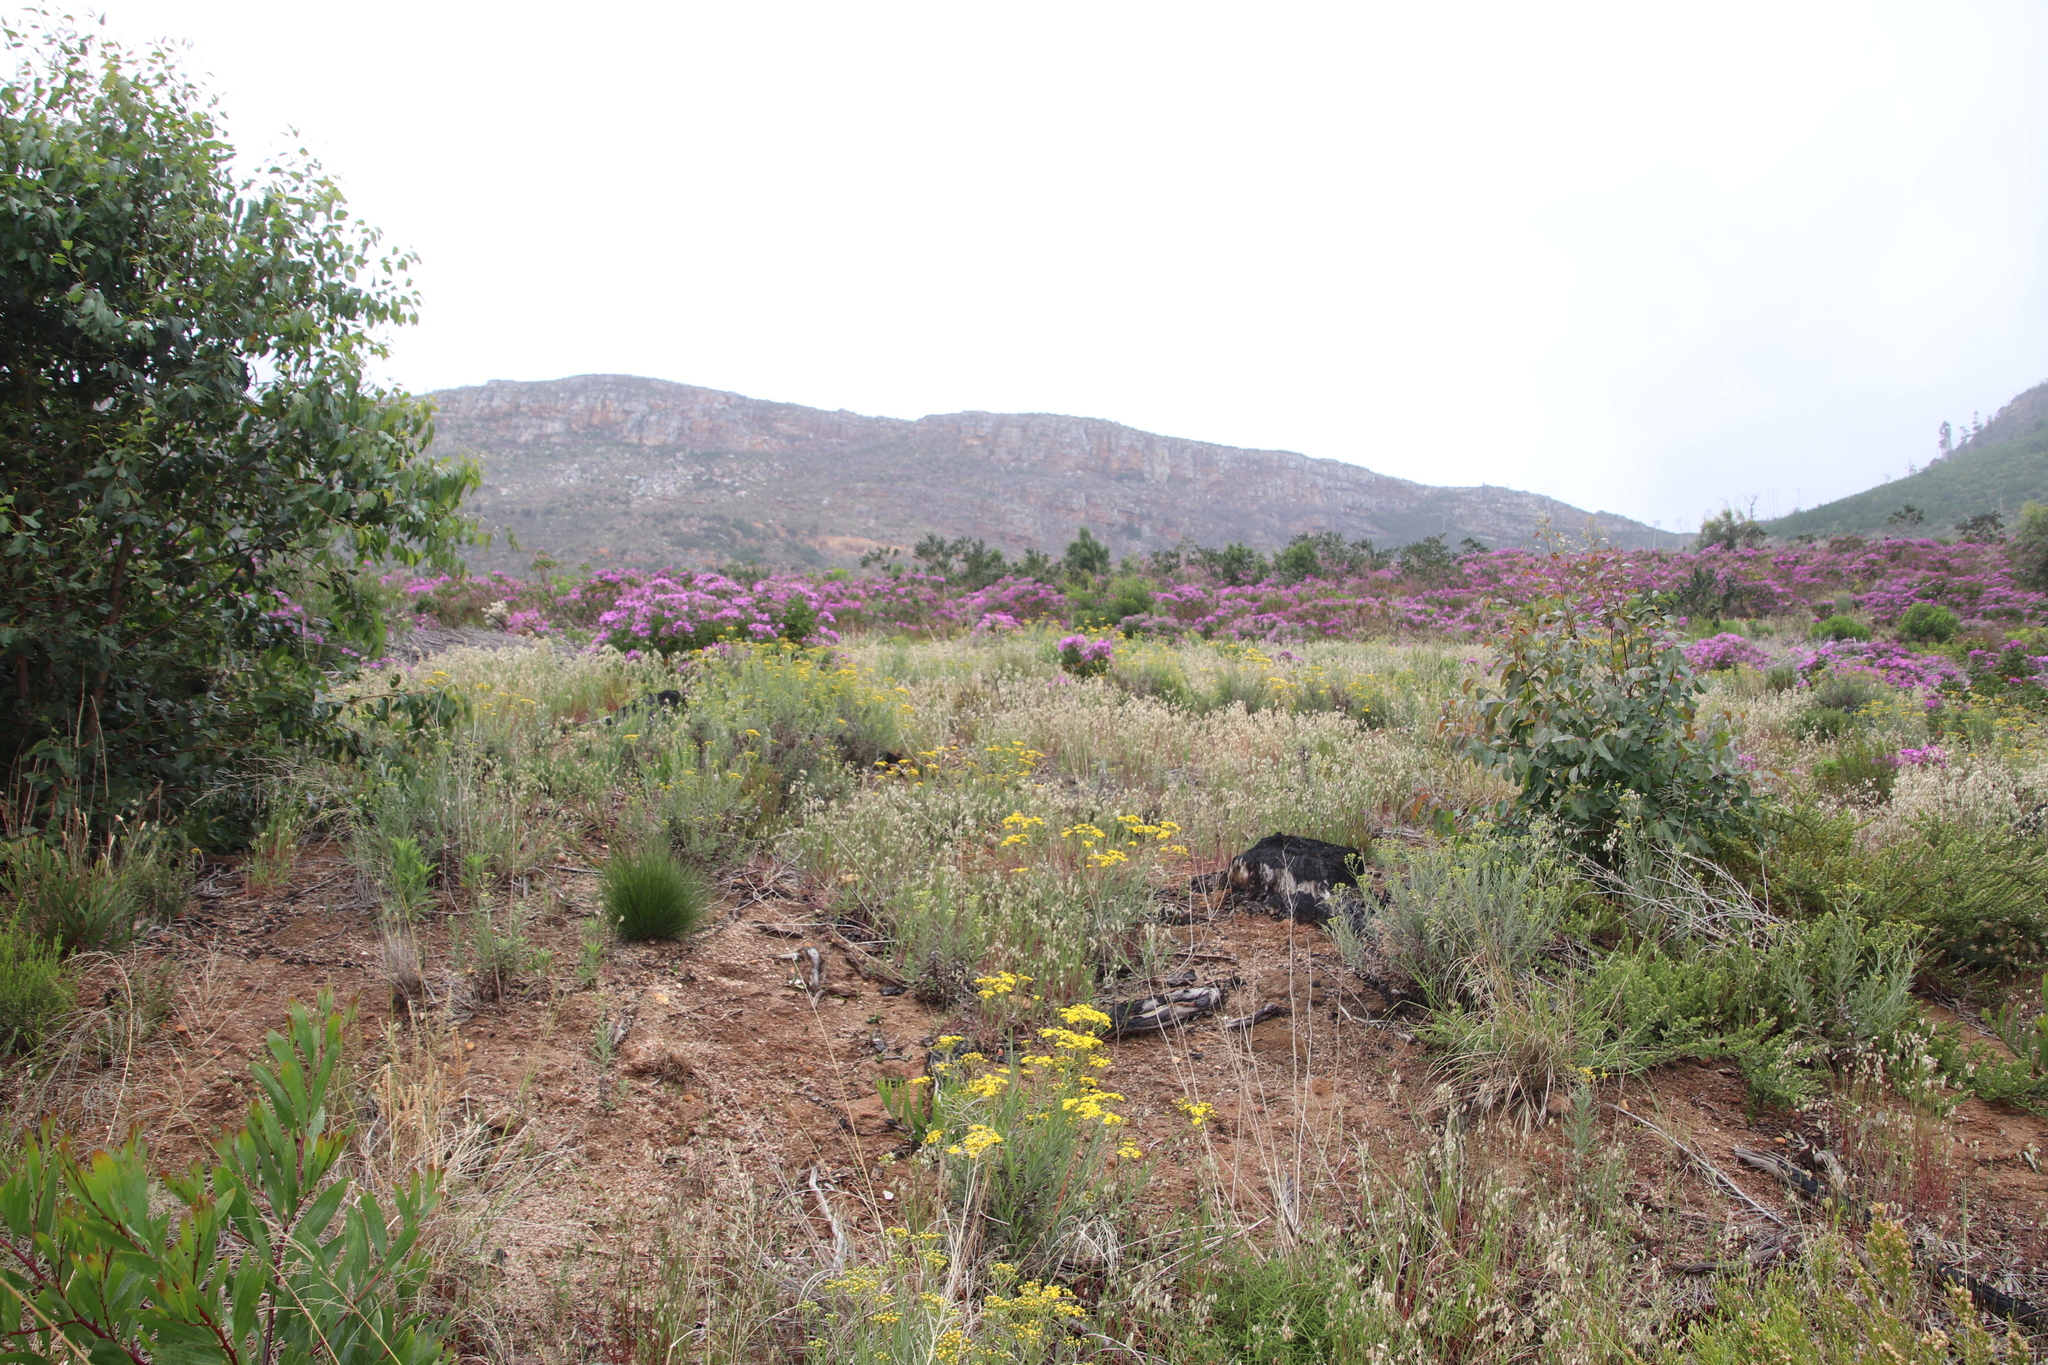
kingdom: Plantae
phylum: Tracheophyta
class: Liliopsida
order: Poales
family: Poaceae
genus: Briza
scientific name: Briza maxima
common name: Big quakinggrass
